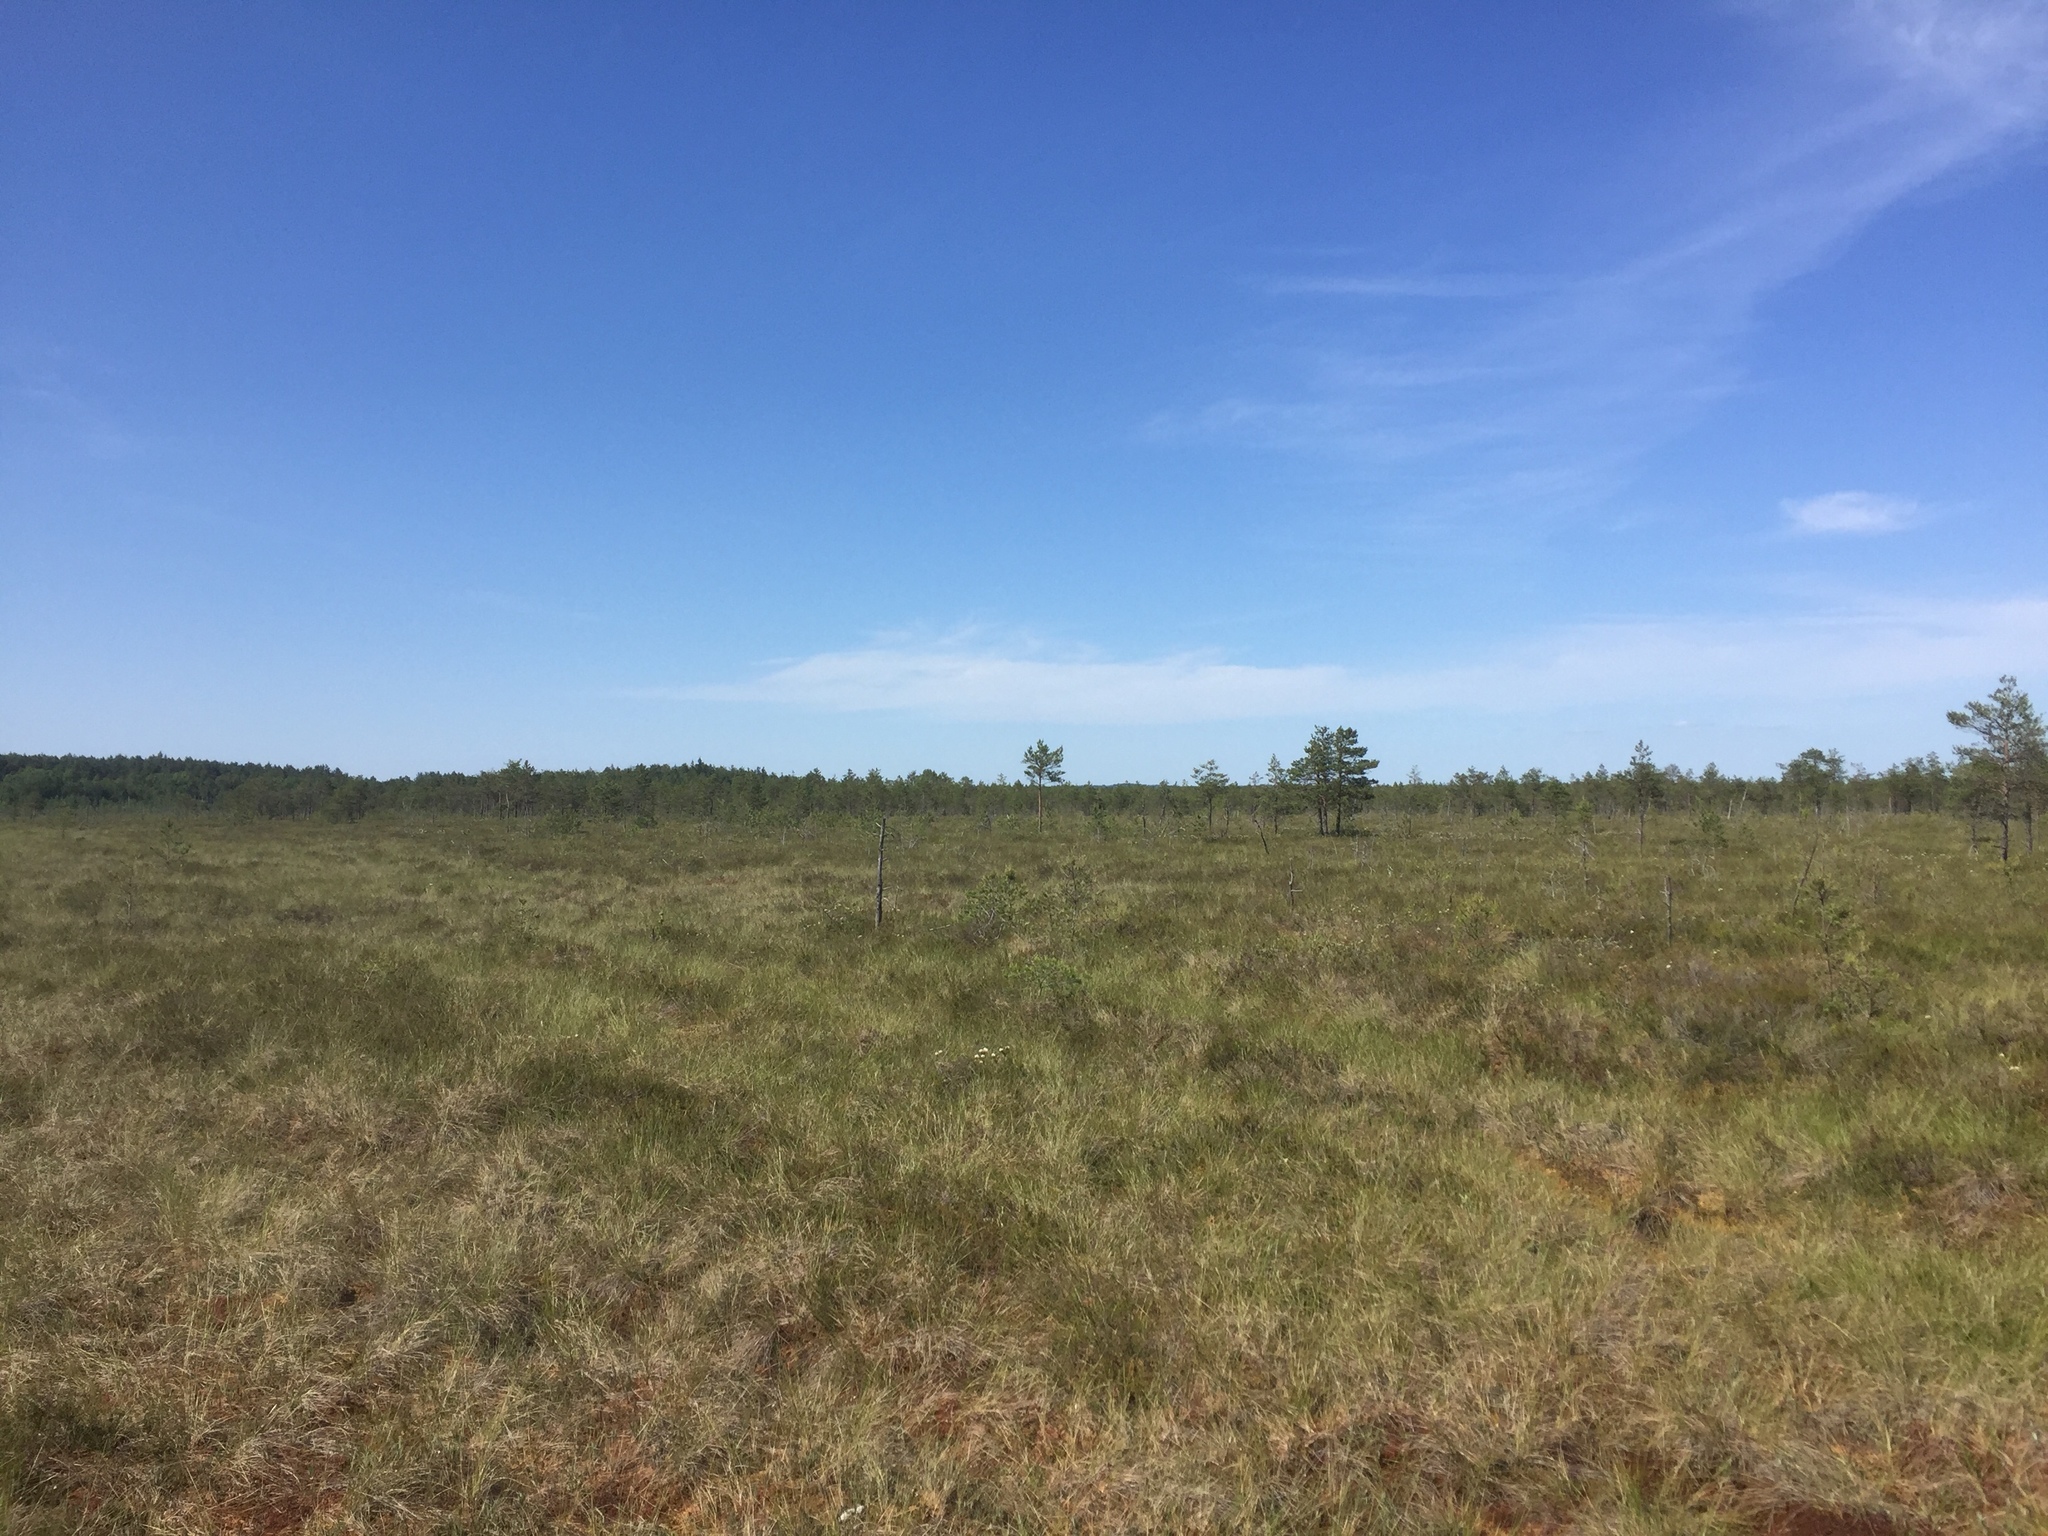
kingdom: Plantae
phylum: Tracheophyta
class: Liliopsida
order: Poales
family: Cyperaceae
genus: Eriophorum
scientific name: Eriophorum vaginatum
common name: Hare's-tail cottongrass
